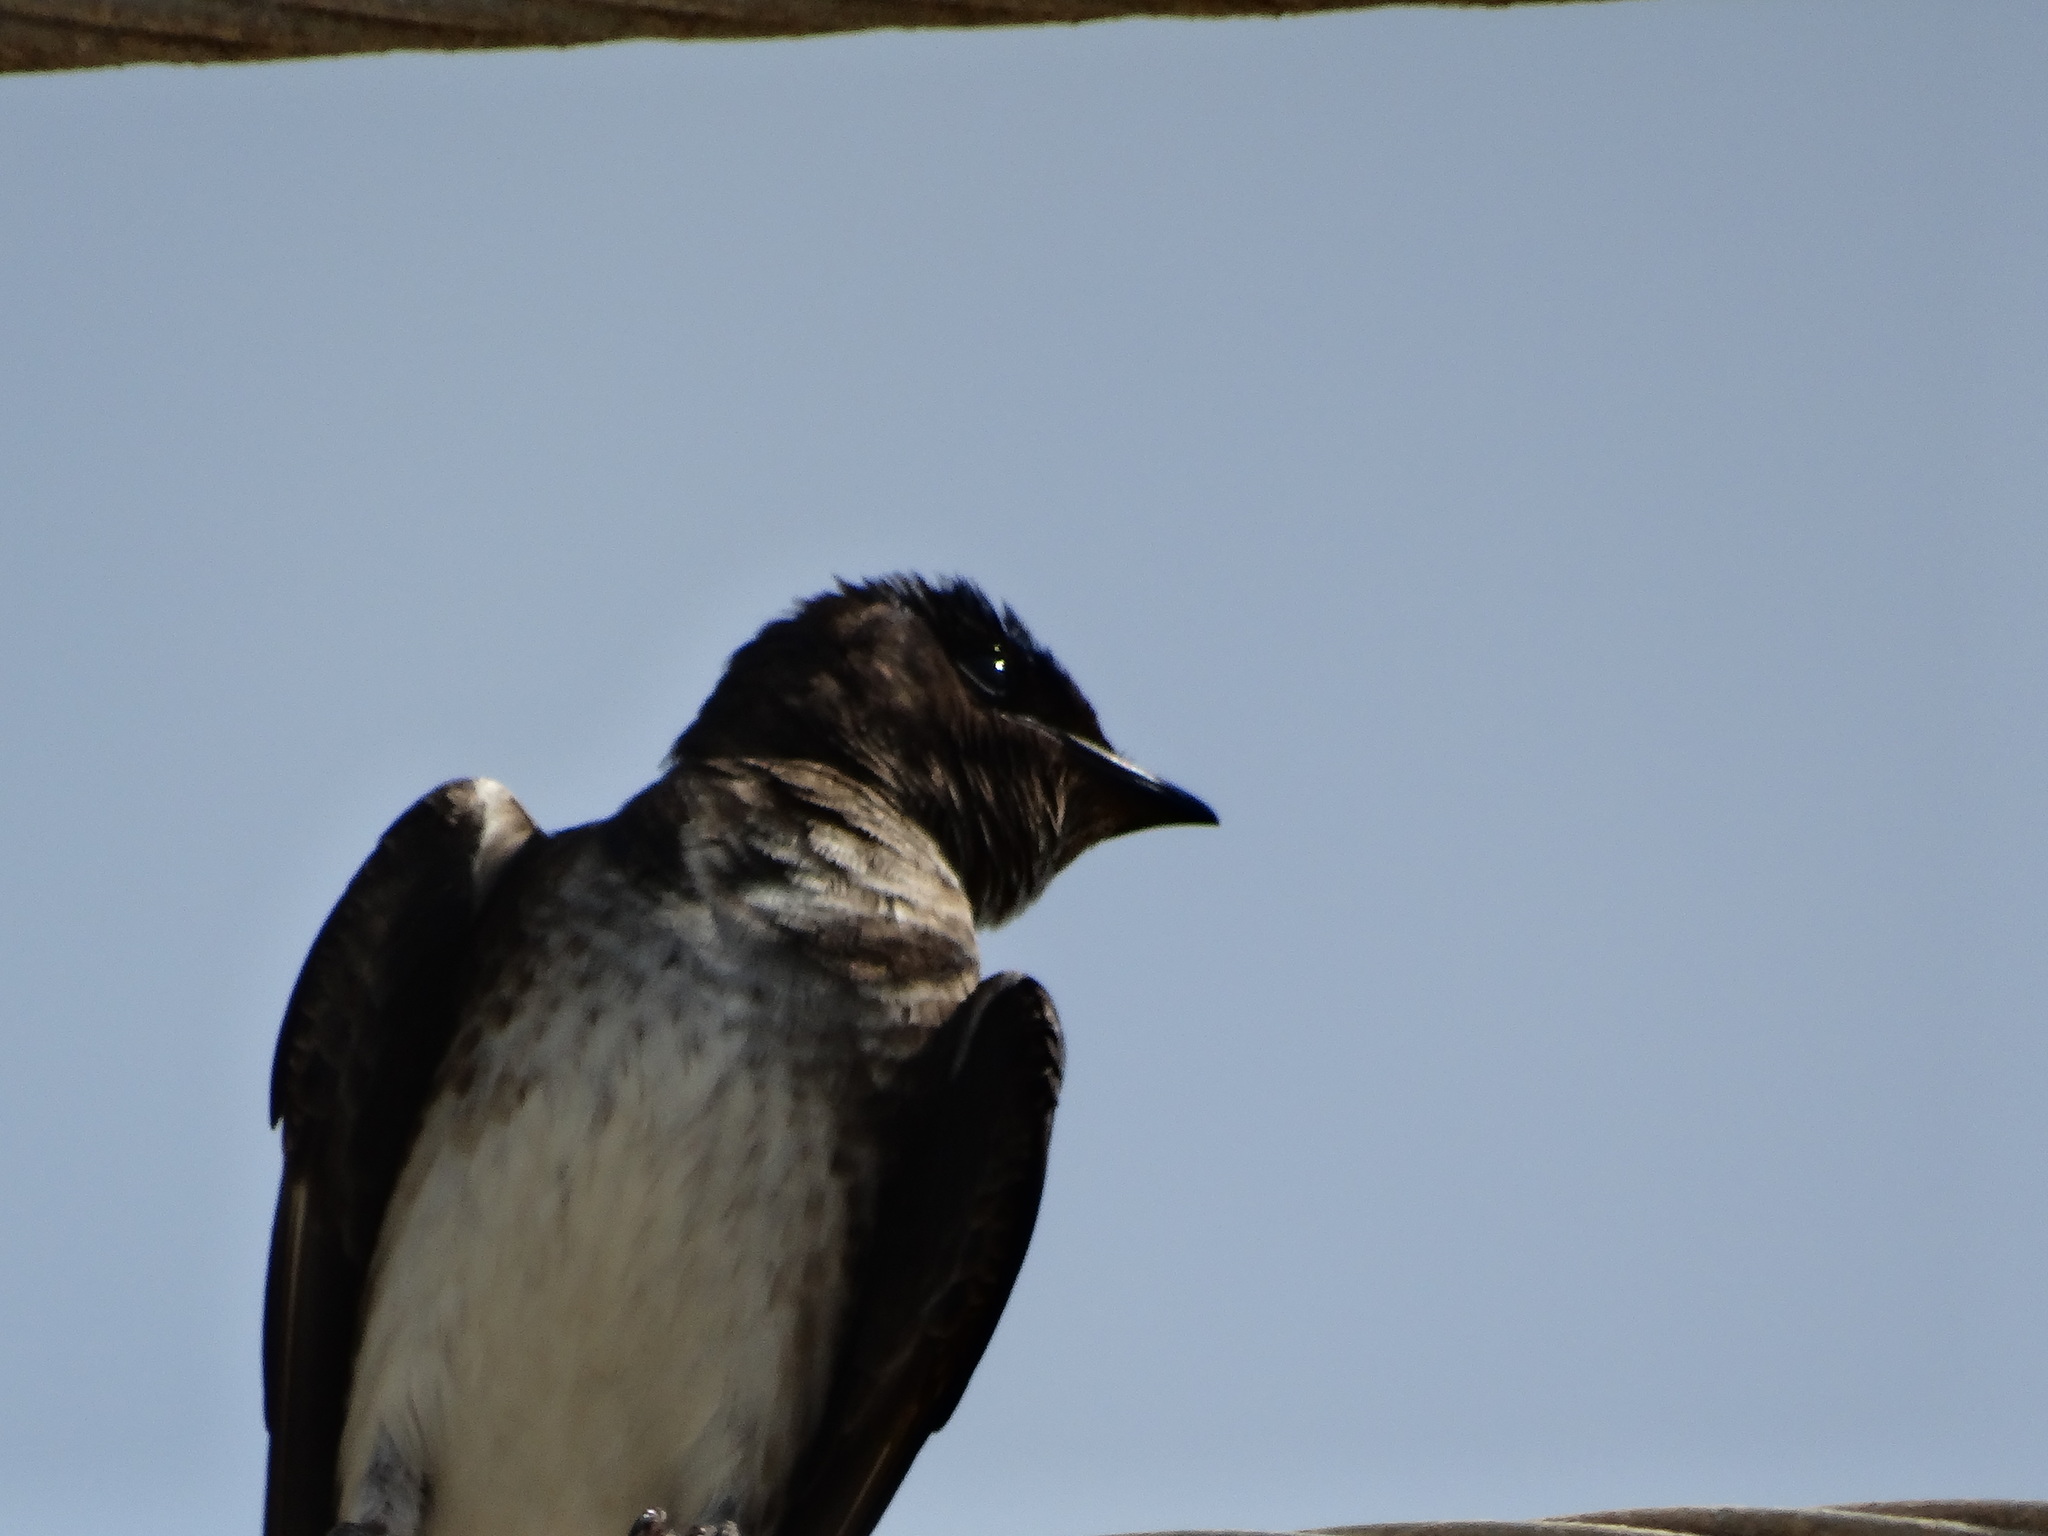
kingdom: Animalia
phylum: Chordata
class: Aves
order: Passeriformes
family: Hirundinidae
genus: Progne
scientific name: Progne chalybea
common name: Grey-breasted martin
